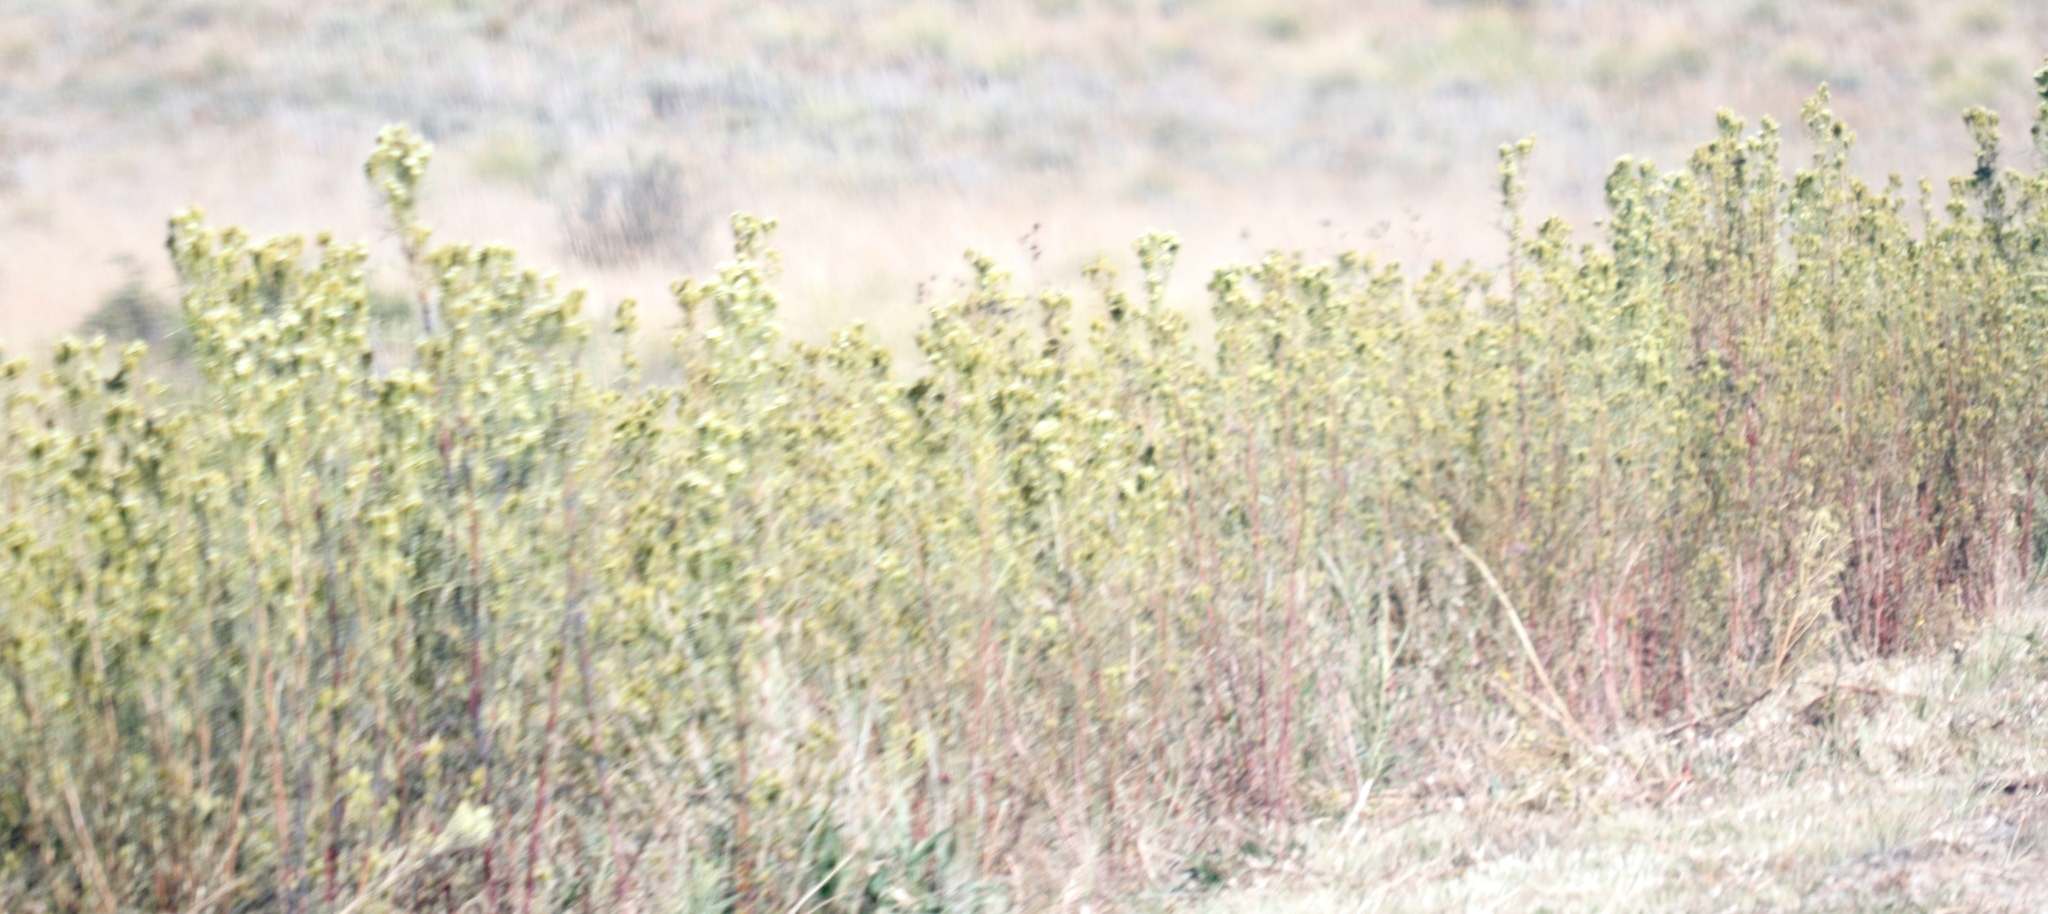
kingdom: Plantae
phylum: Tracheophyta
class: Magnoliopsida
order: Asterales
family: Asteraceae
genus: Tagetes
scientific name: Tagetes minuta
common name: Muster john henry
